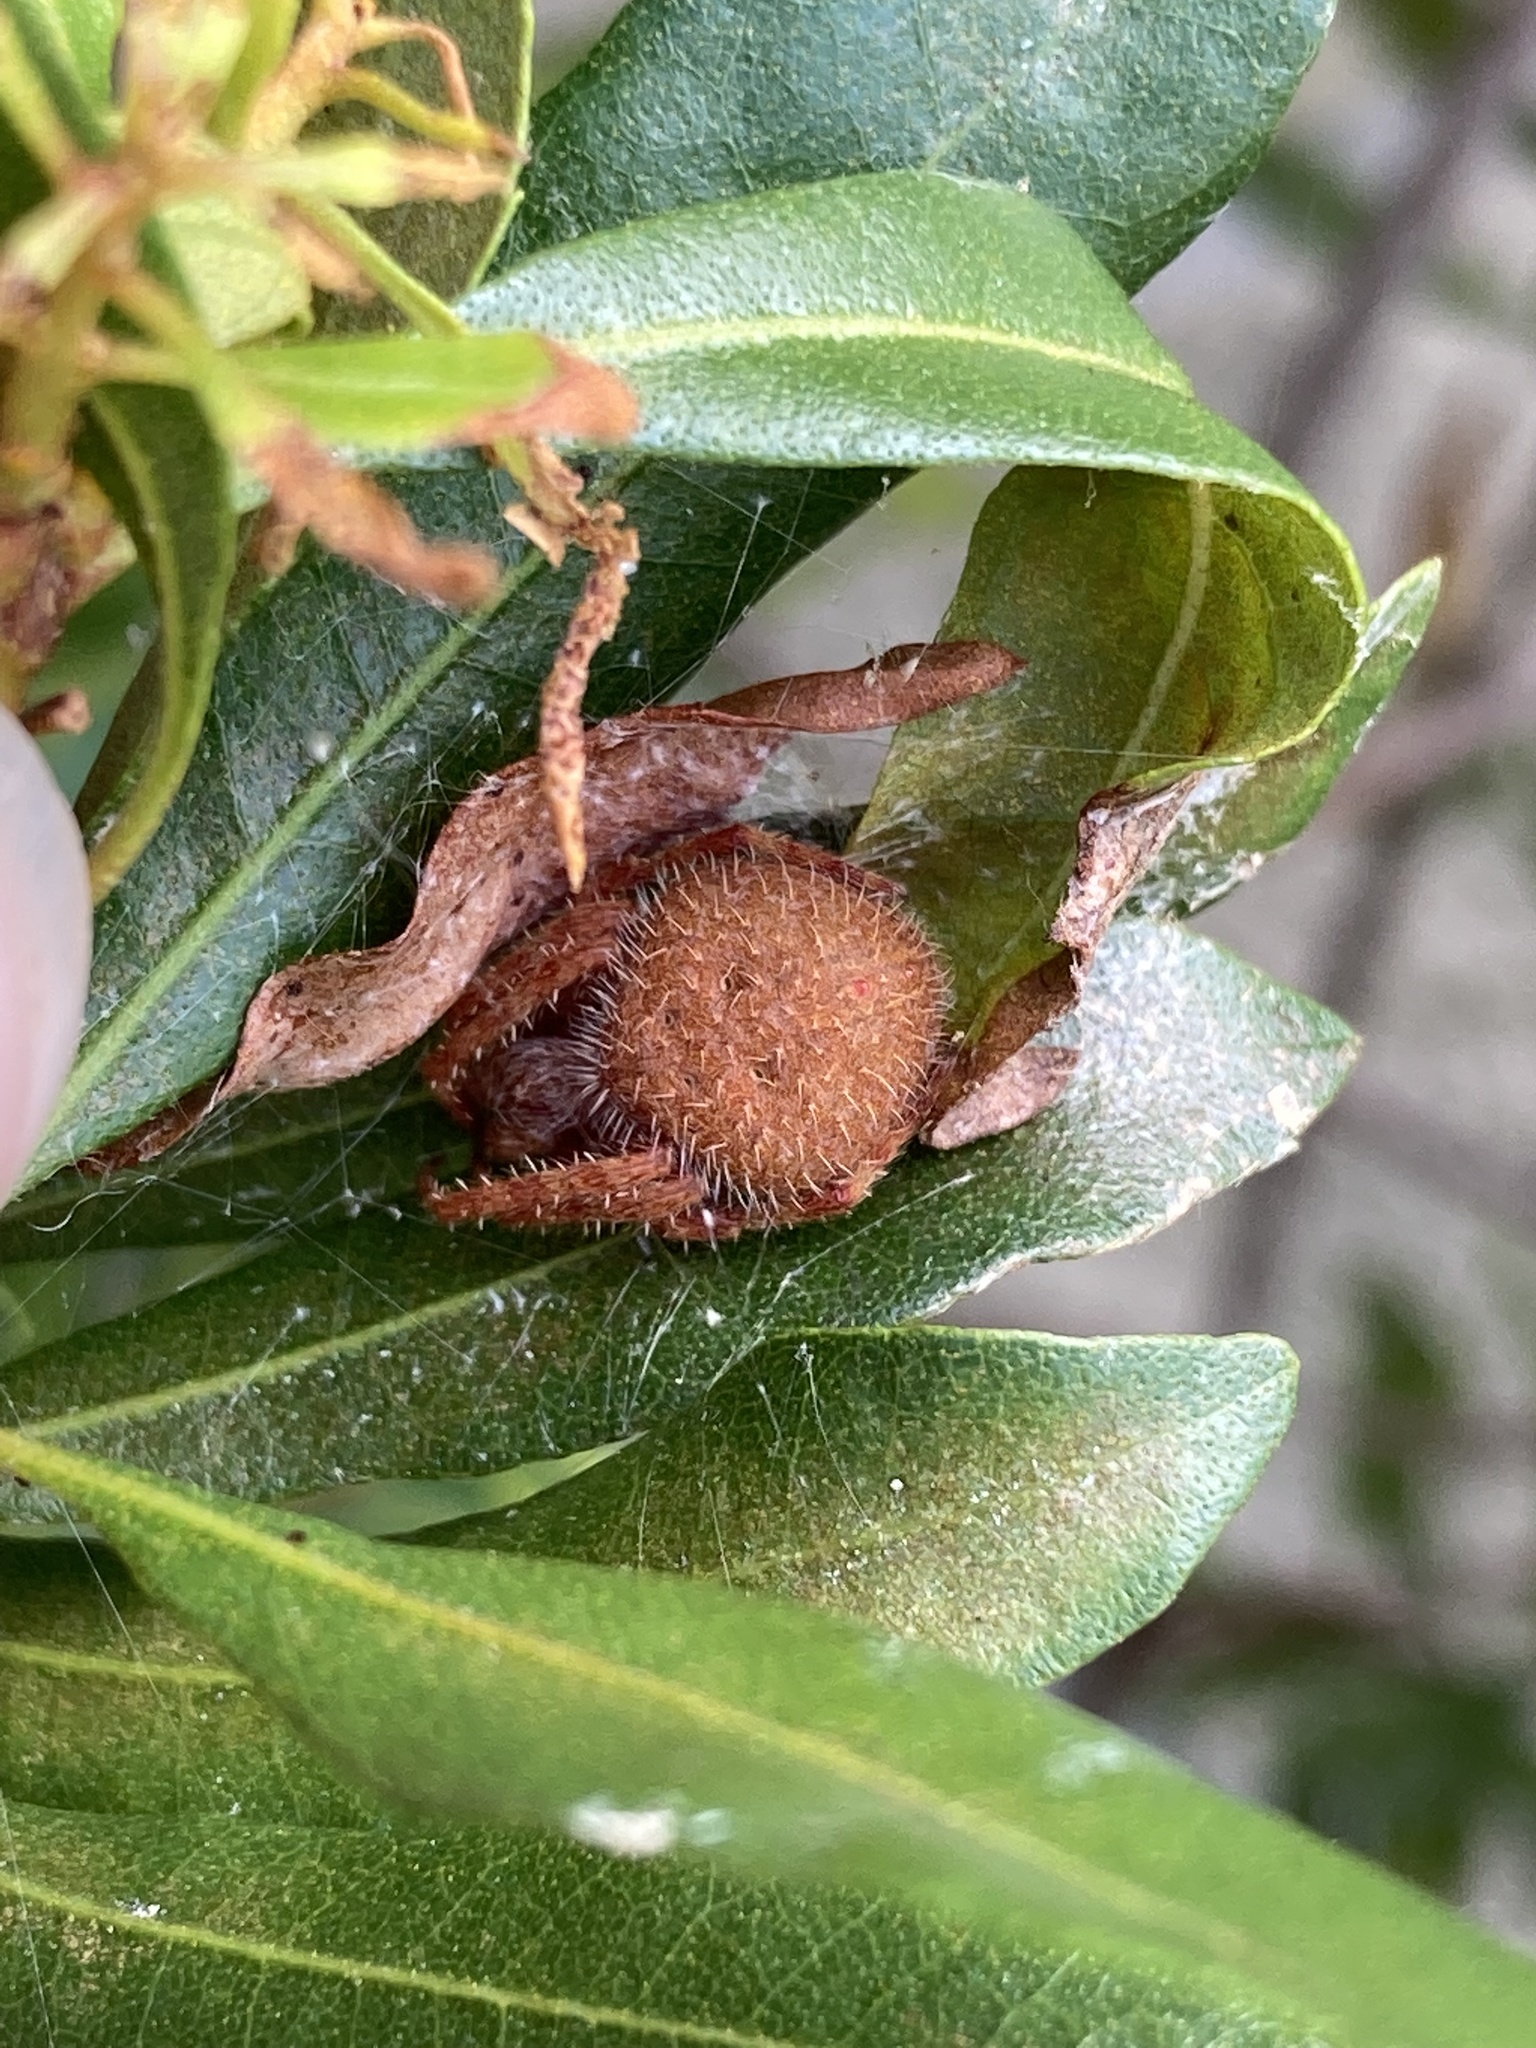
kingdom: Animalia
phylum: Arthropoda
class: Arachnida
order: Araneae
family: Araneidae
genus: Eriophora
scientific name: Eriophora ravilla
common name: Orb weavers
